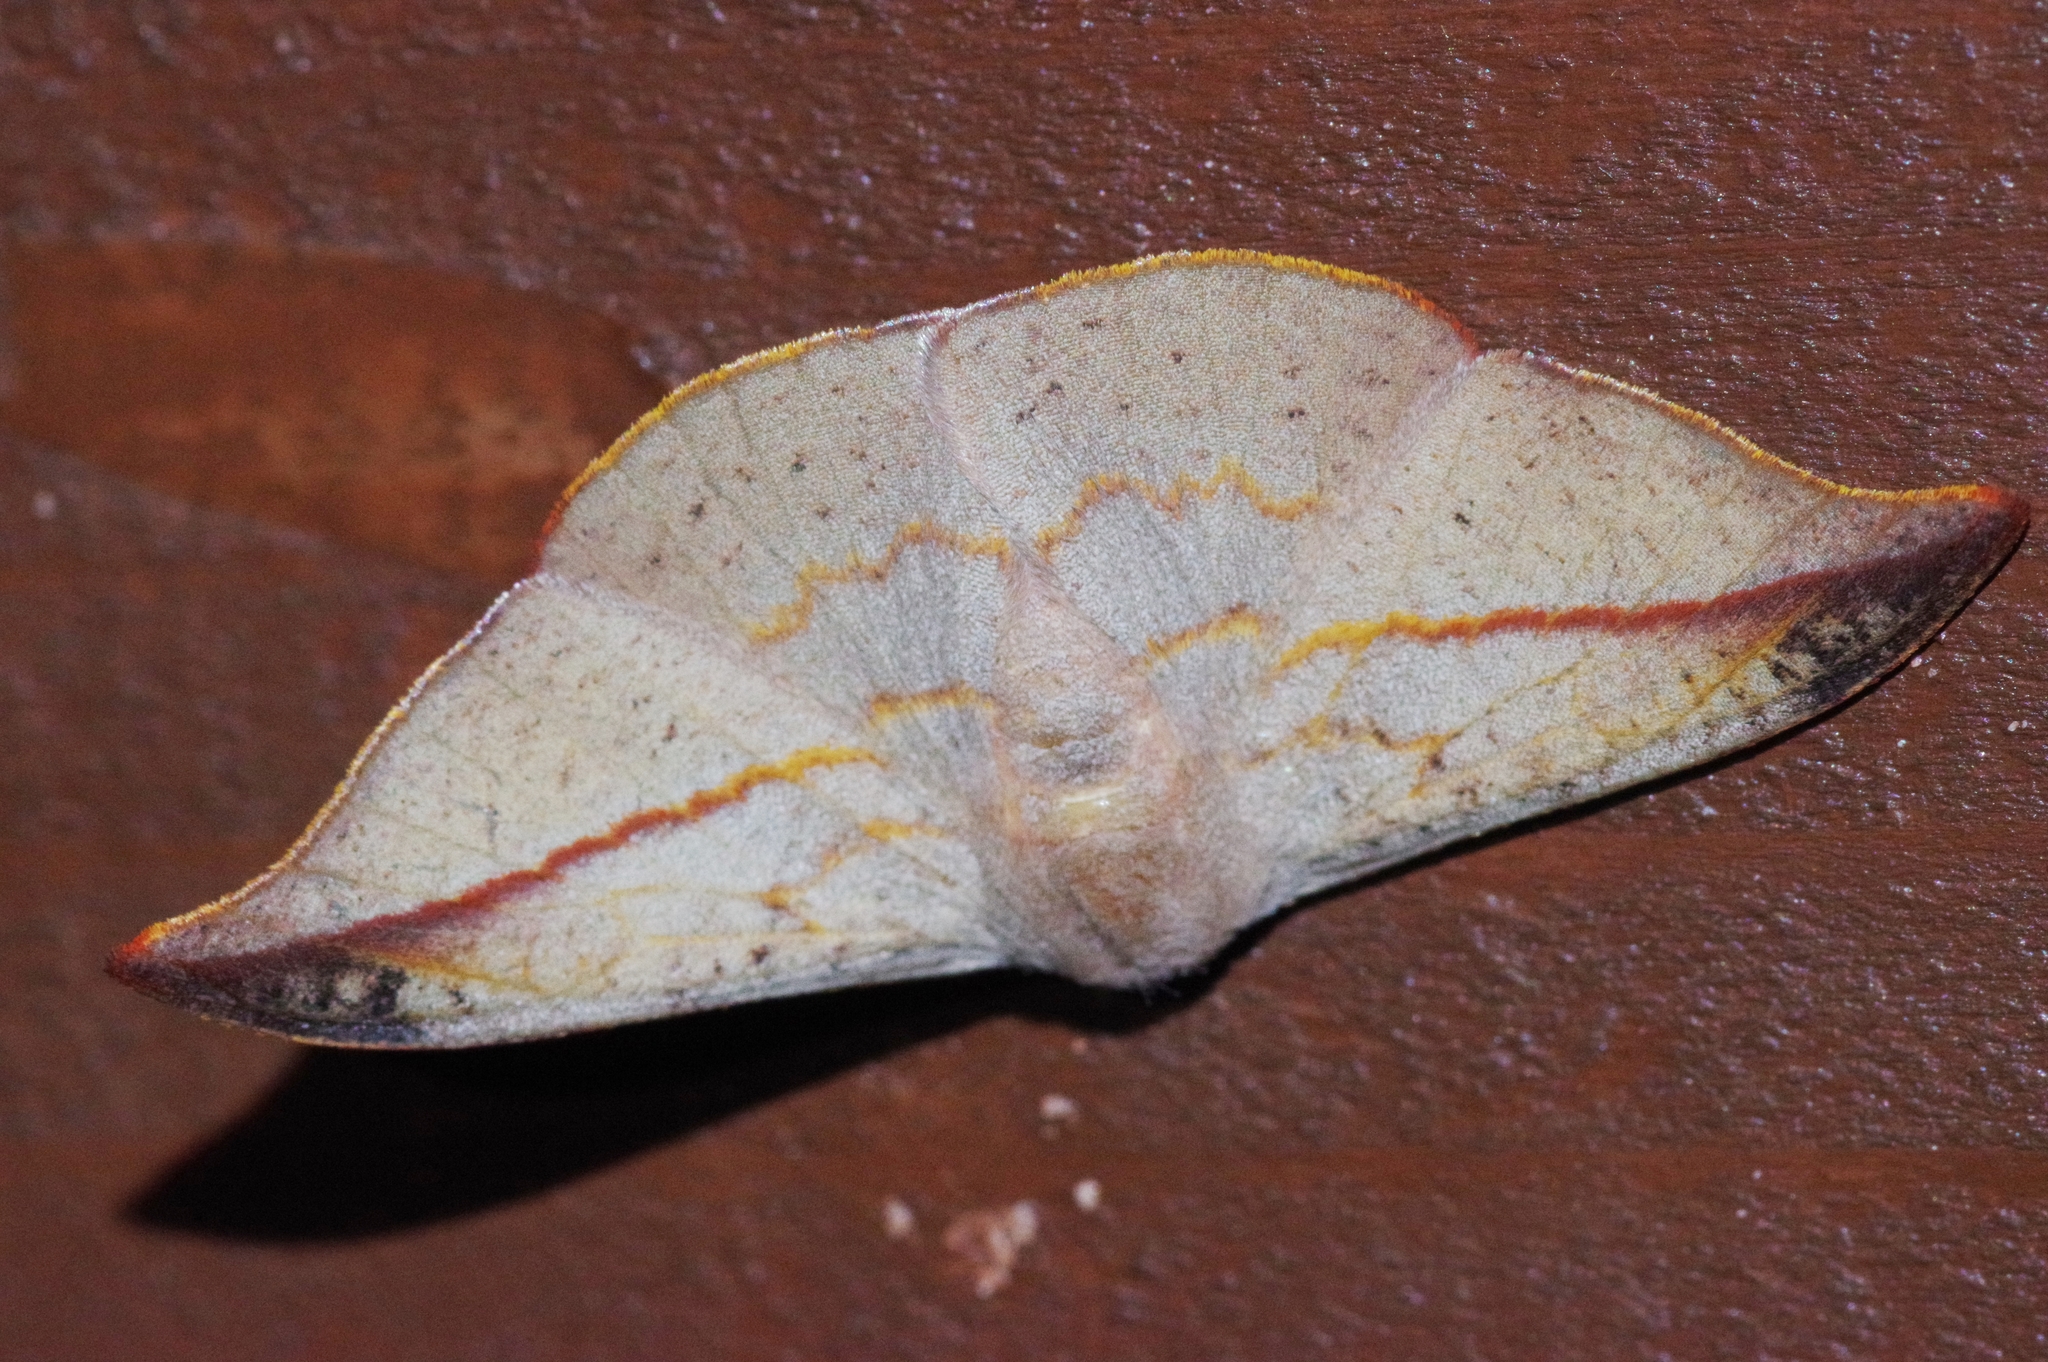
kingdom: Animalia
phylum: Arthropoda
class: Insecta
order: Lepidoptera
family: Drepanidae
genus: Oreta
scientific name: Oreta insignis
